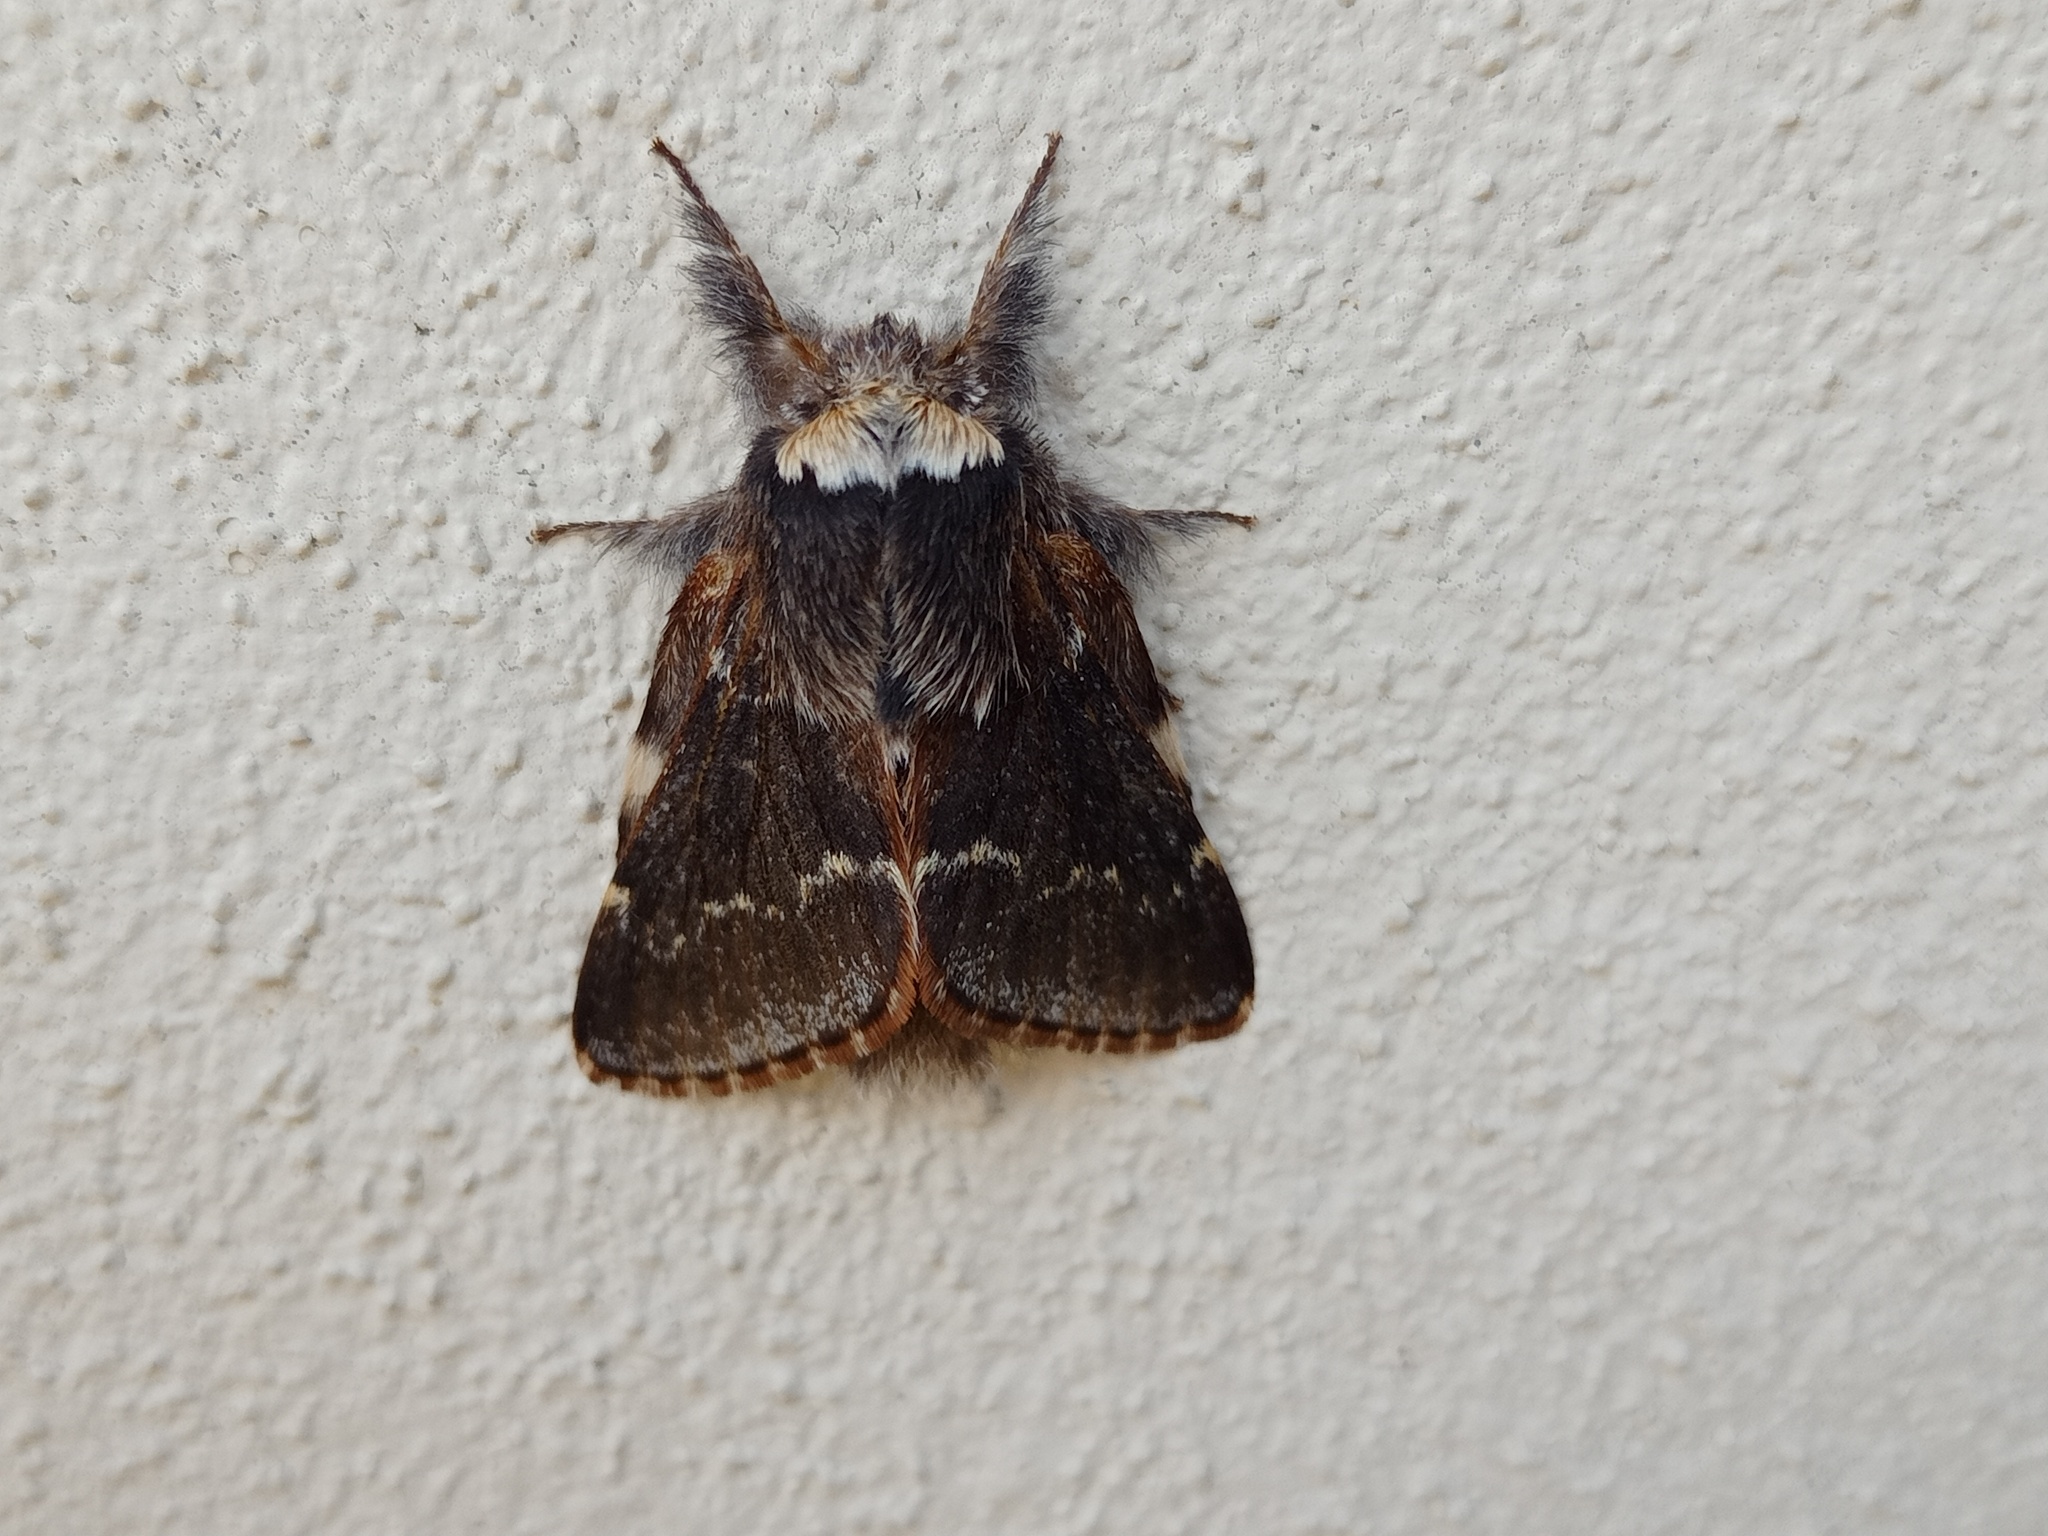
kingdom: Animalia
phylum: Arthropoda
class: Insecta
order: Lepidoptera
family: Lasiocampidae
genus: Poecilocampa
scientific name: Poecilocampa populi
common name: December moth
